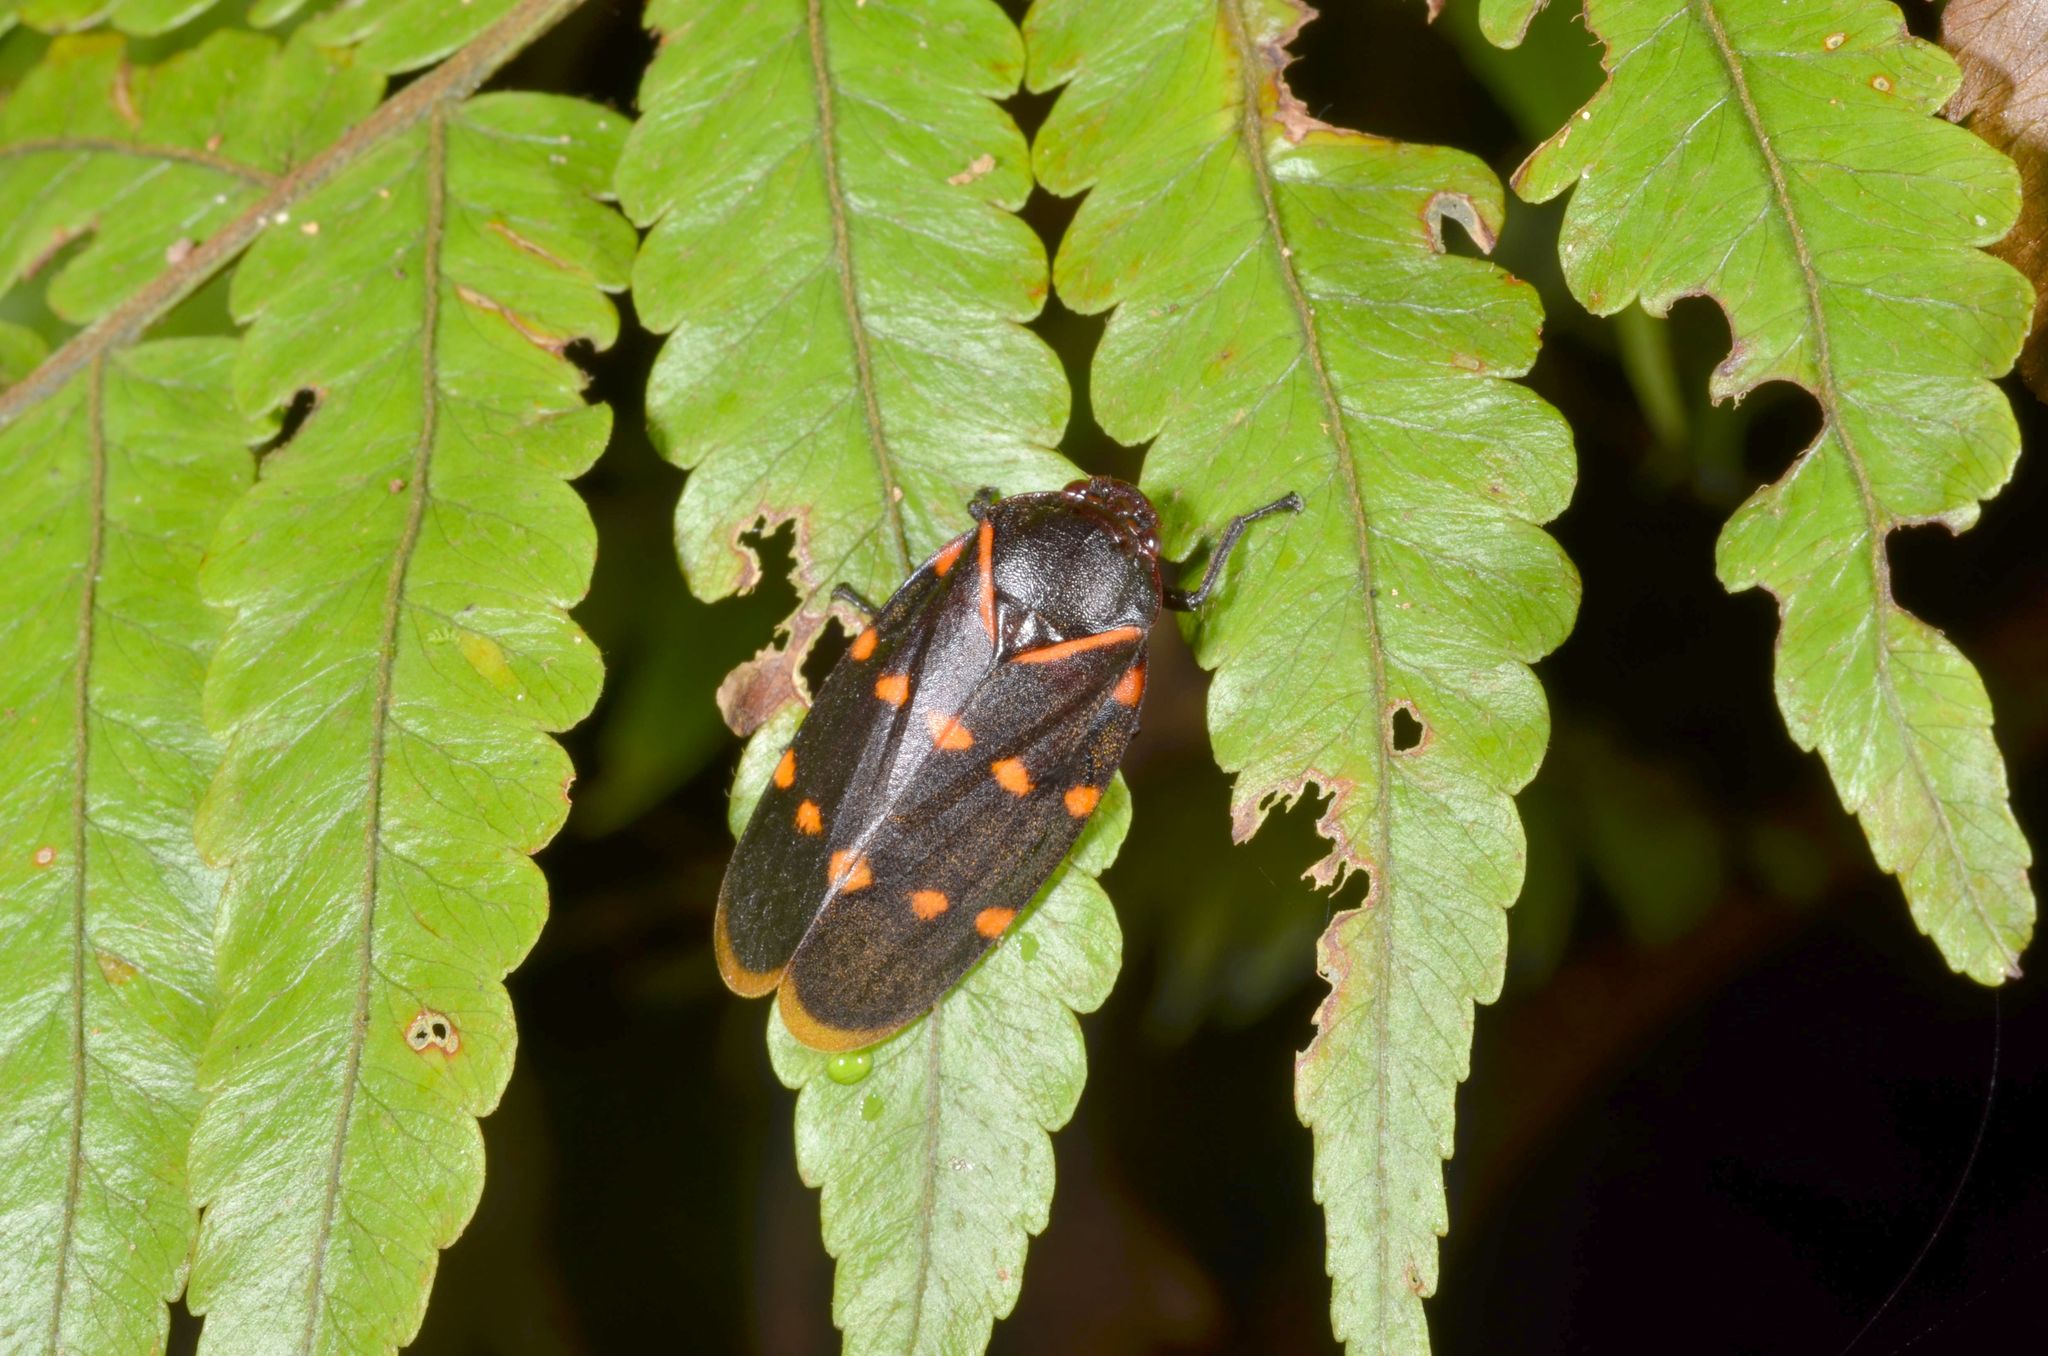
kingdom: Animalia
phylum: Arthropoda
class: Insecta
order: Hemiptera
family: Cercopidae
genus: Phymatostetha
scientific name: Phymatostetha triseriata
